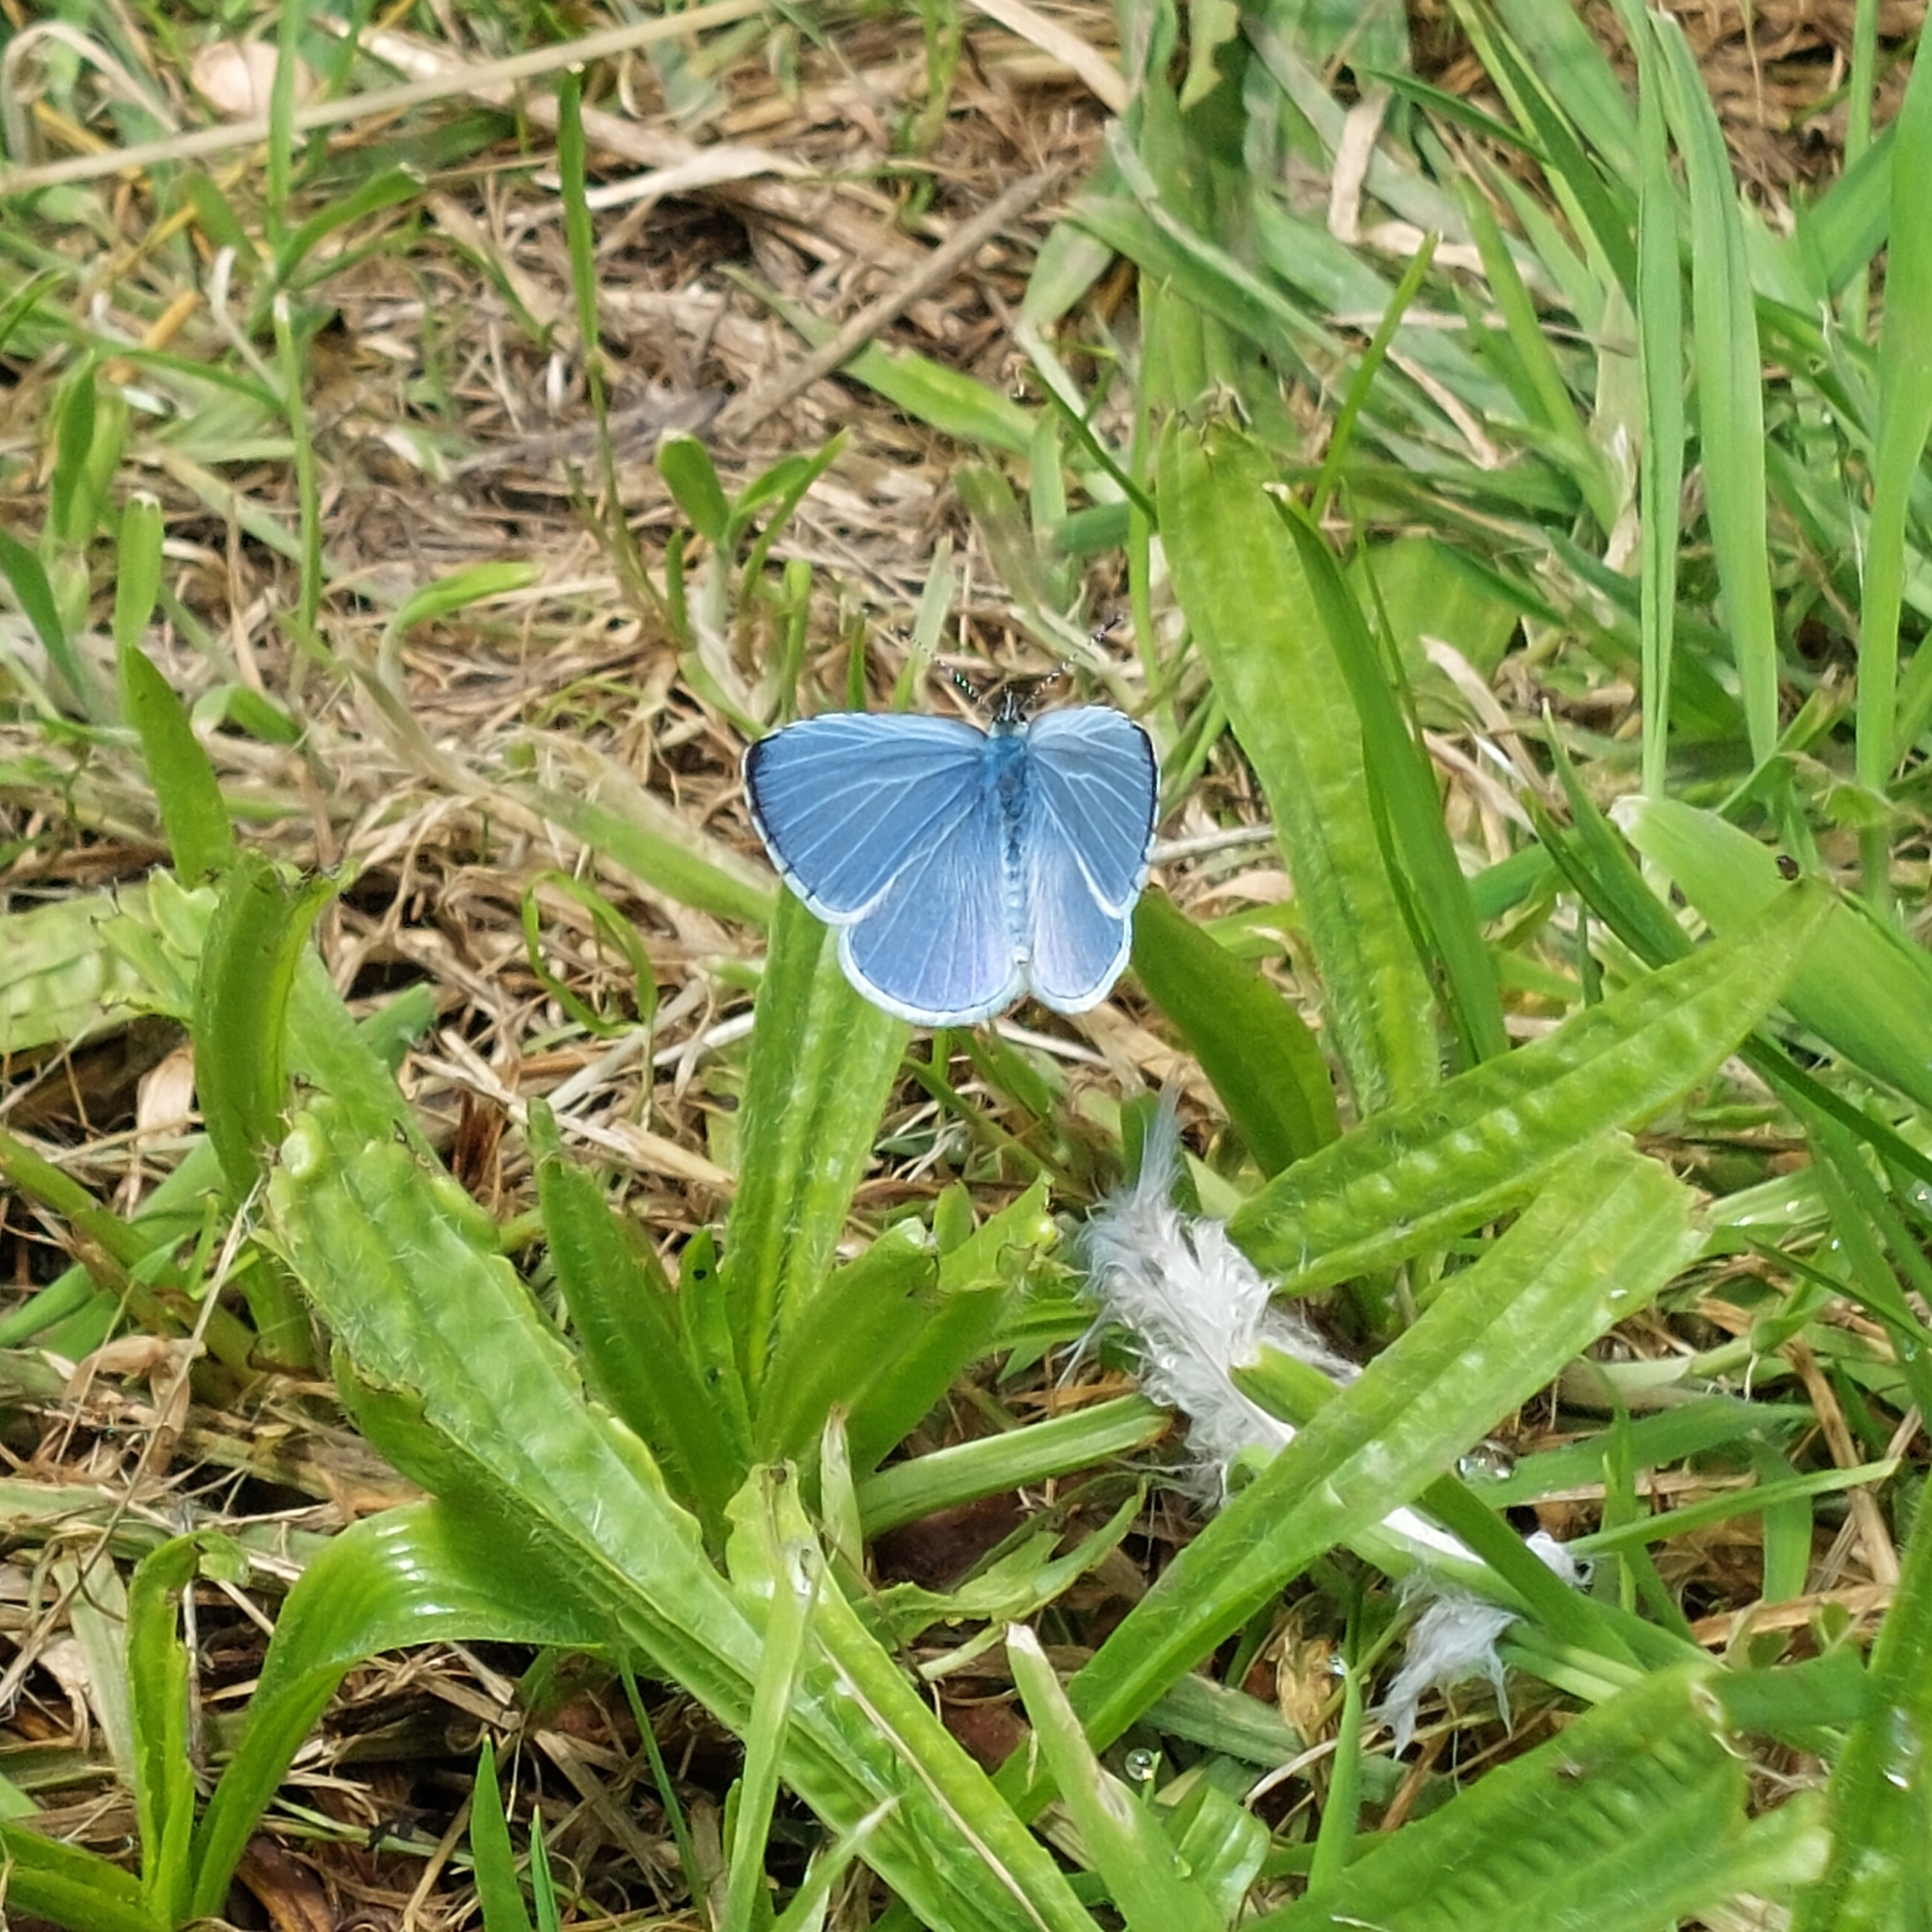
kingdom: Animalia
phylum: Arthropoda
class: Insecta
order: Lepidoptera
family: Lycaenidae
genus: Celastrina
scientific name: Celastrina argiolus
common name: Holly blue
